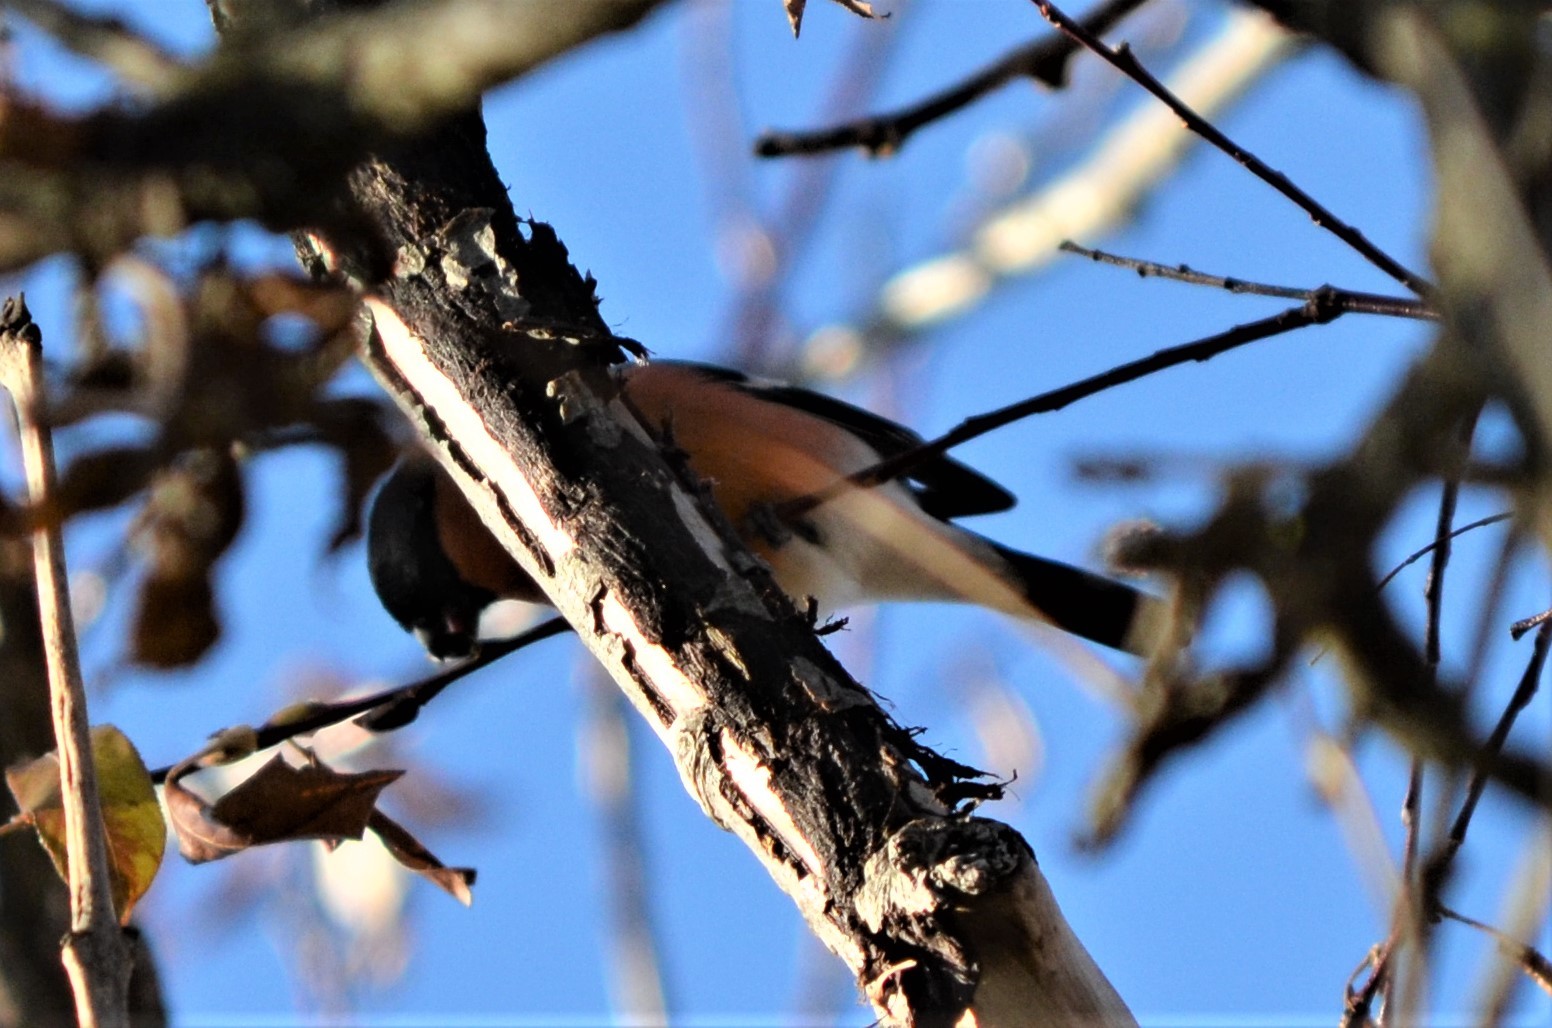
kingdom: Animalia
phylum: Chordata
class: Aves
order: Passeriformes
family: Fringillidae
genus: Pyrrhula
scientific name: Pyrrhula pyrrhula
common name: Eurasian bullfinch
